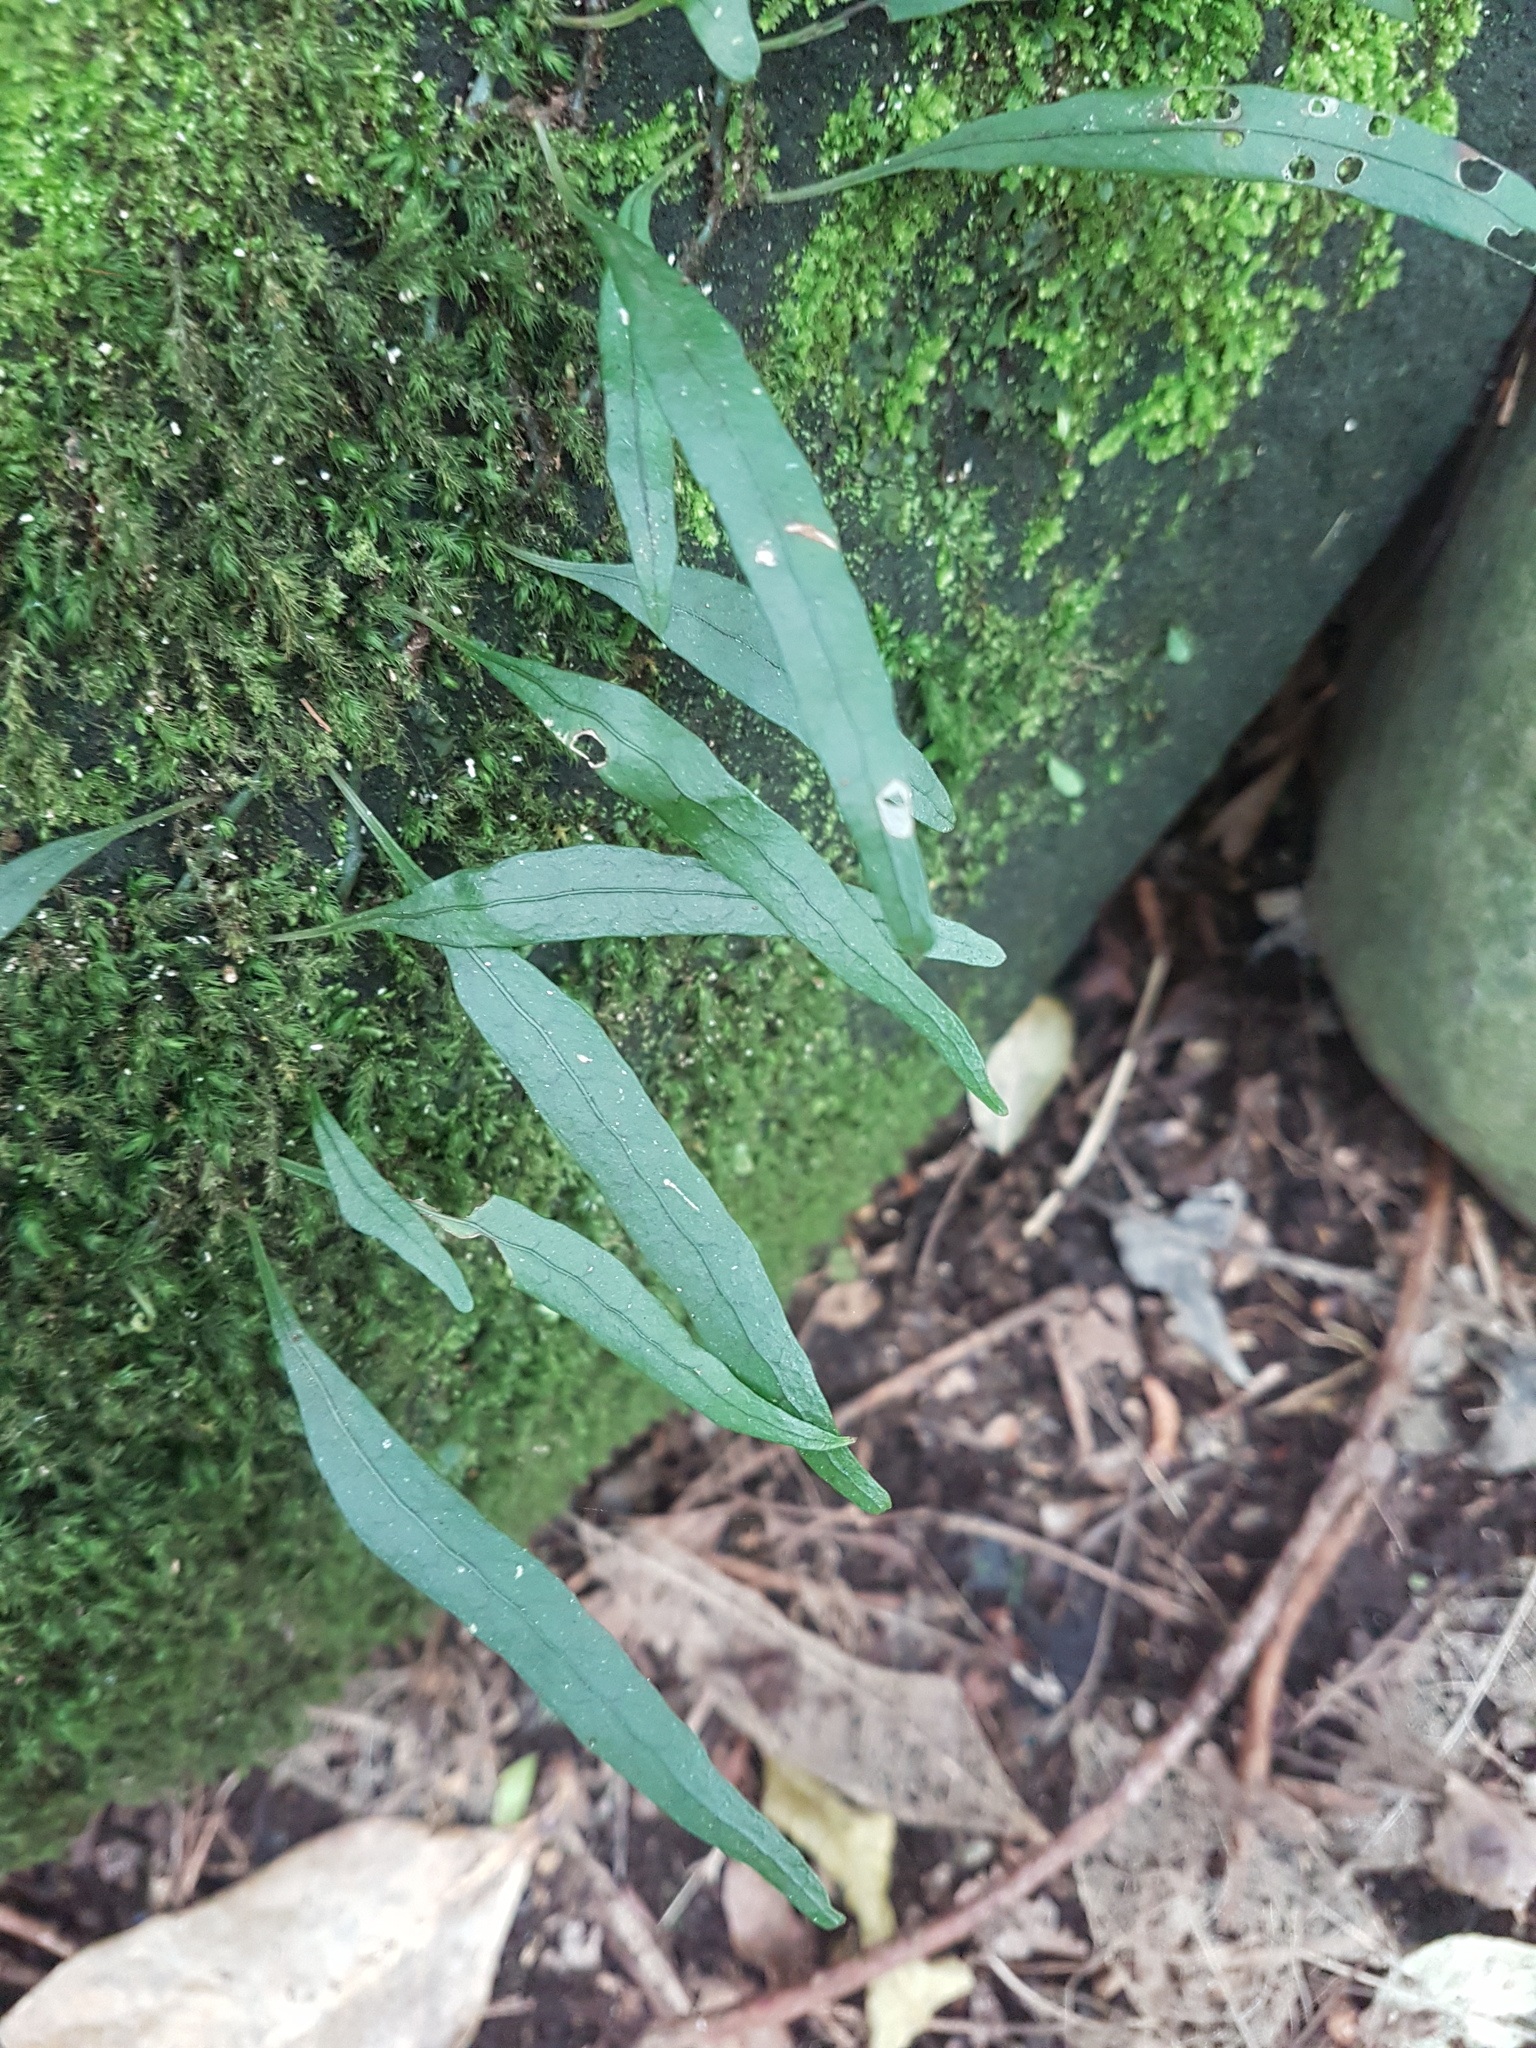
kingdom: Plantae
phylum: Tracheophyta
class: Polypodiopsida
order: Polypodiales
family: Polypodiaceae
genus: Lecanopteris
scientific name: Lecanopteris scandens
